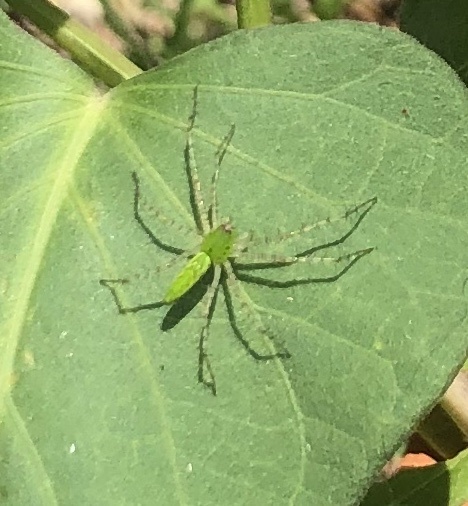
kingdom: Animalia
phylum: Arthropoda
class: Arachnida
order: Araneae
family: Oxyopidae
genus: Peucetia
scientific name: Peucetia viridans
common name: Lynx spiders
